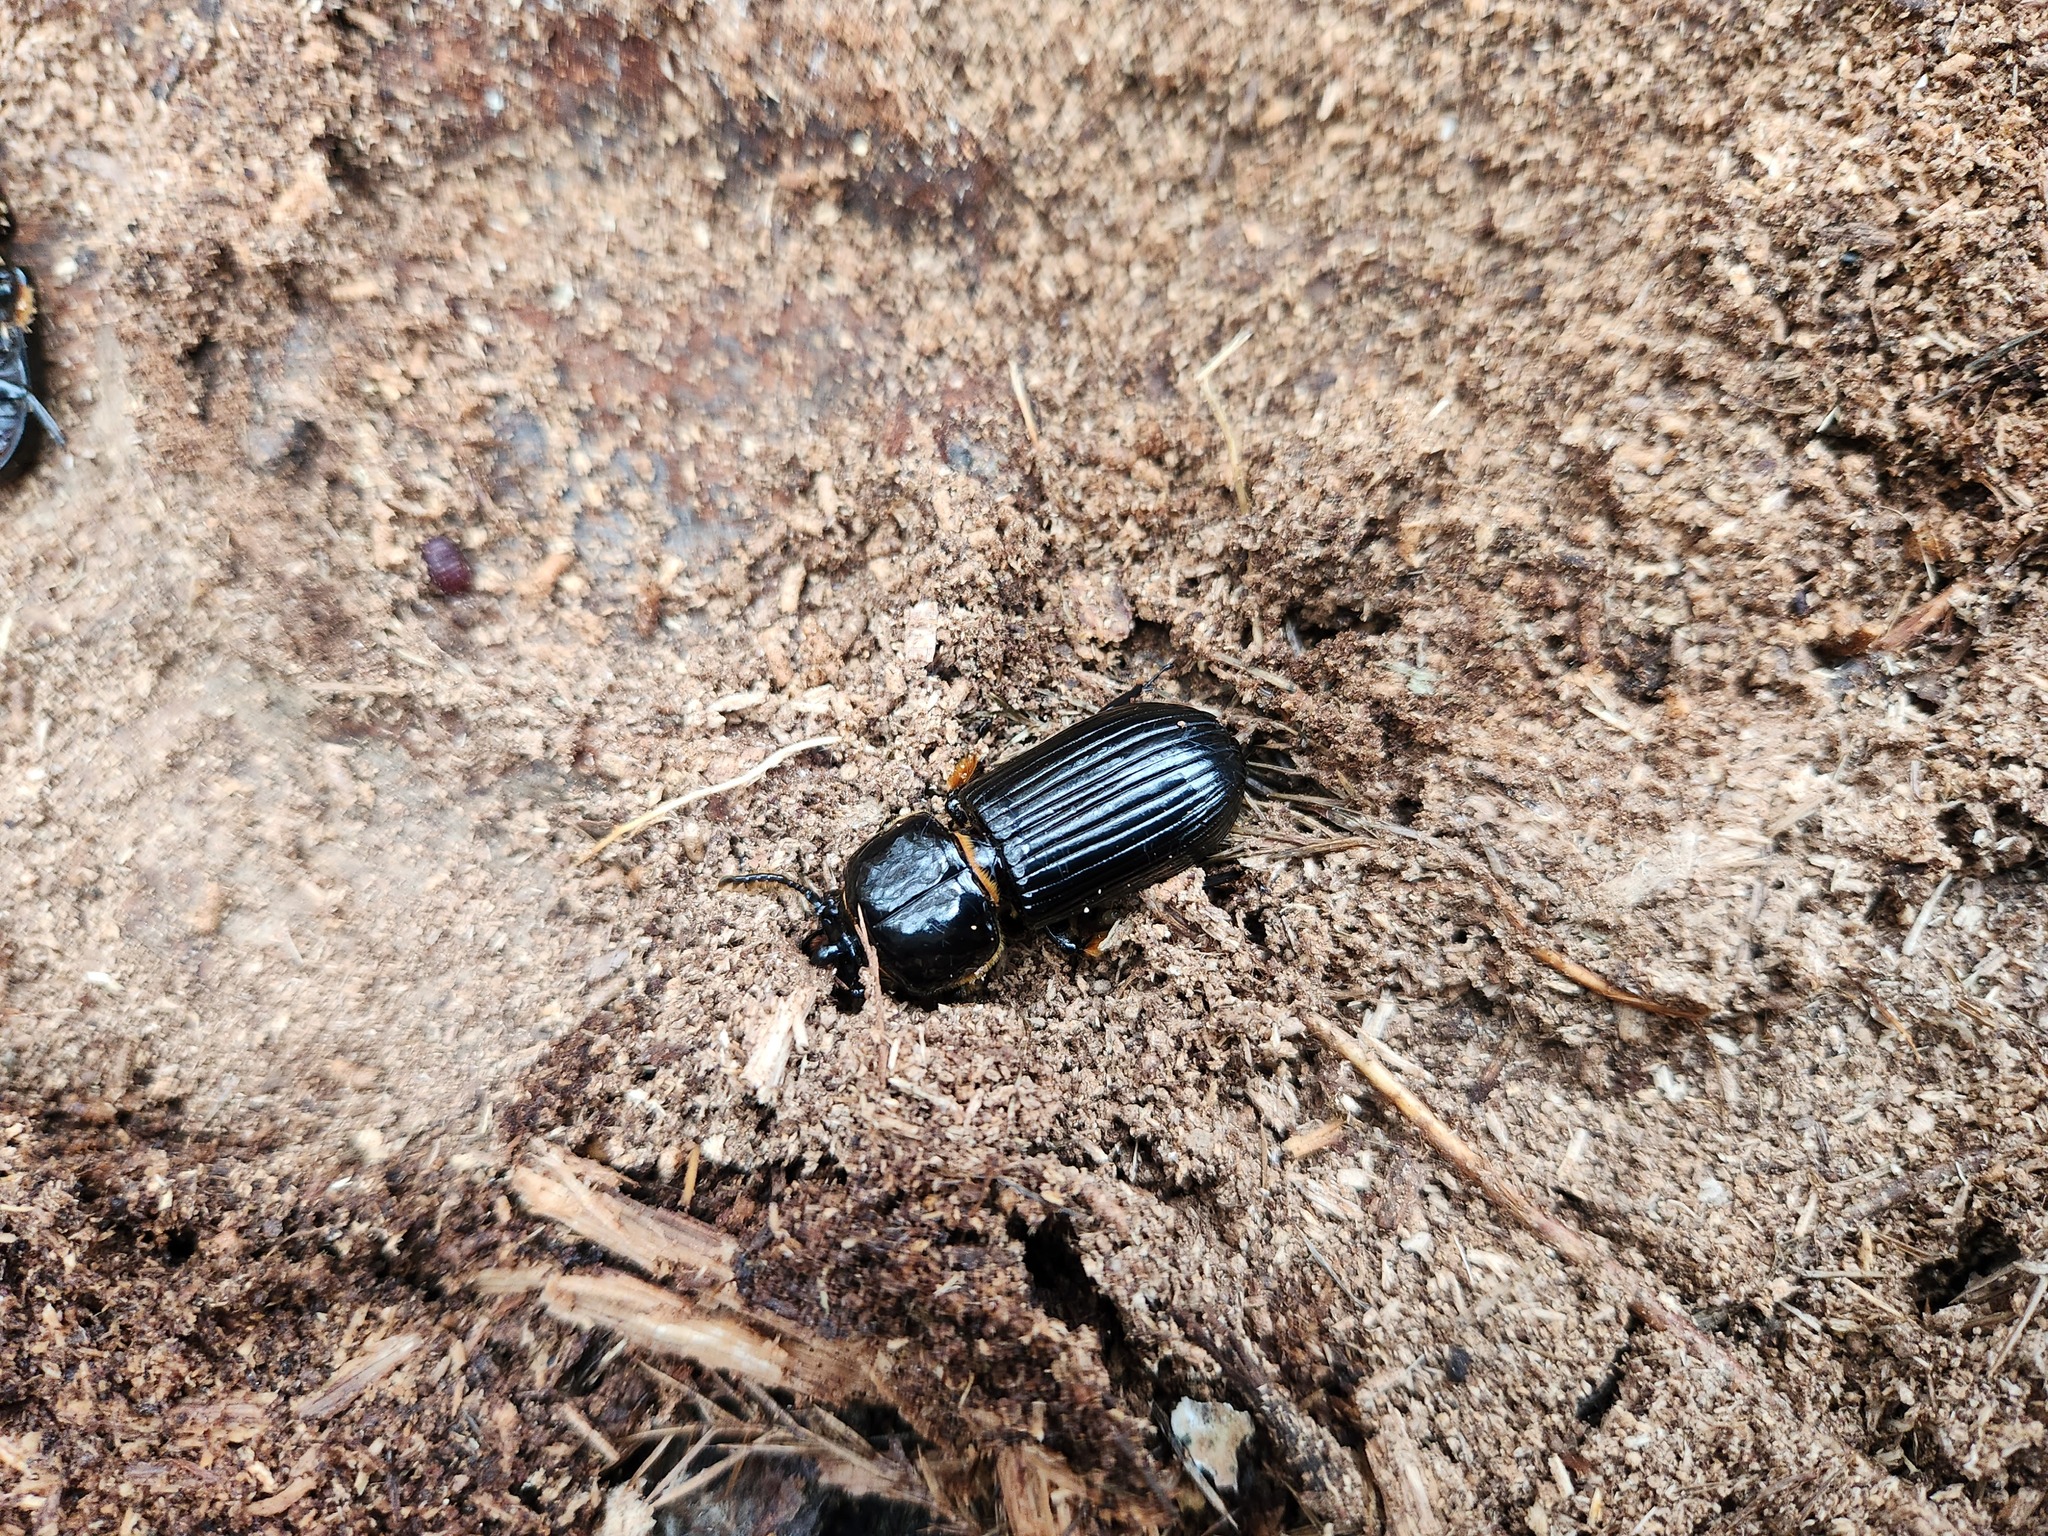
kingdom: Animalia
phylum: Arthropoda
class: Insecta
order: Coleoptera
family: Passalidae
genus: Odontotaenius
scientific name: Odontotaenius disjunctus
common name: Patent leather beetle
